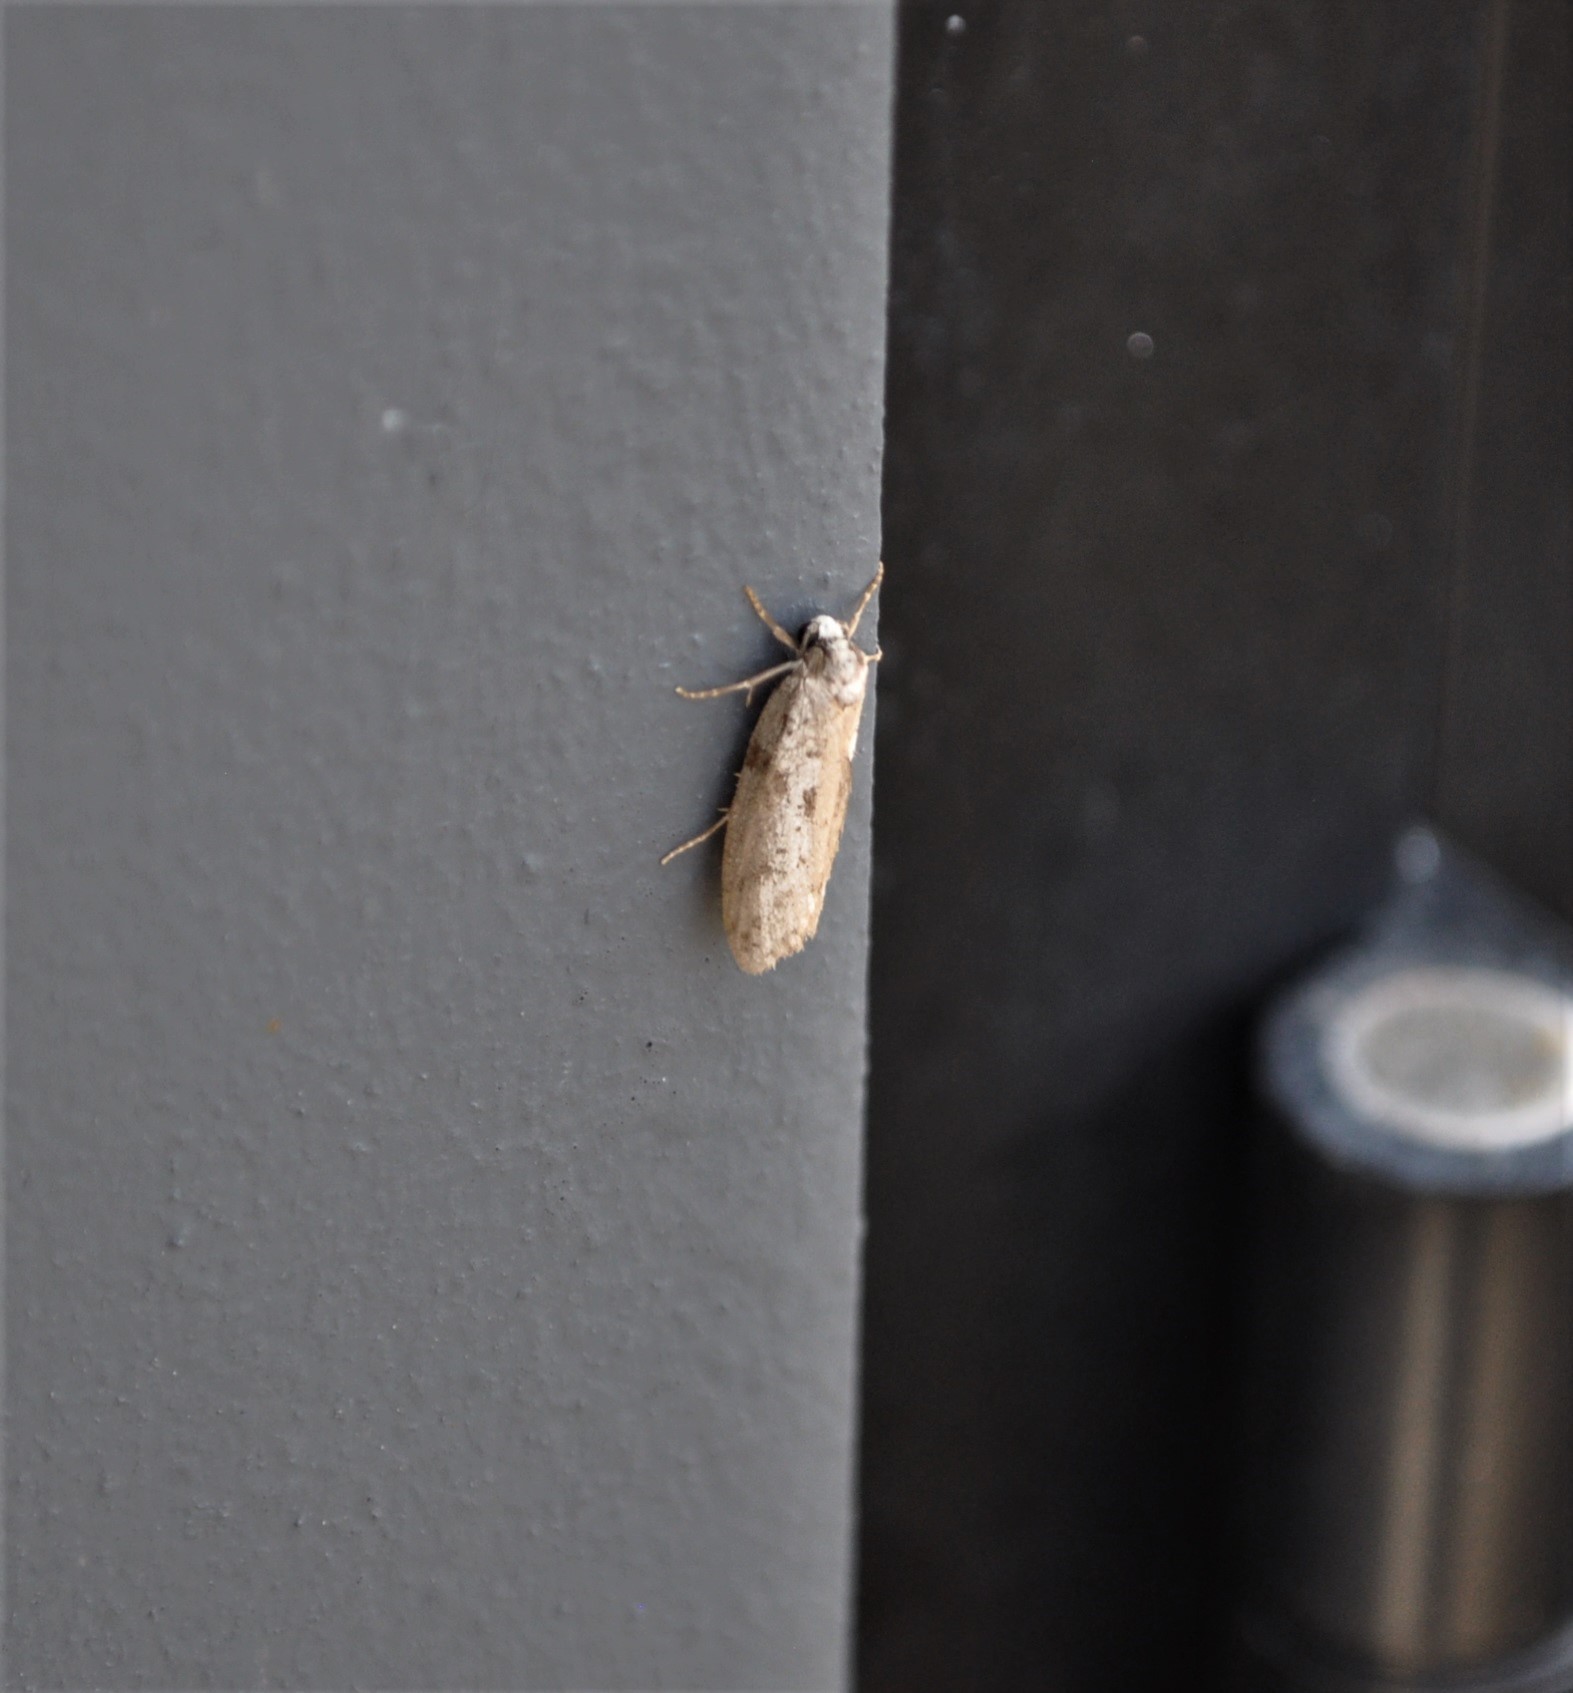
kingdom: Animalia
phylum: Arthropoda
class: Insecta
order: Lepidoptera
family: Psychidae
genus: Lepidoscia
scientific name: Lepidoscia protorna
